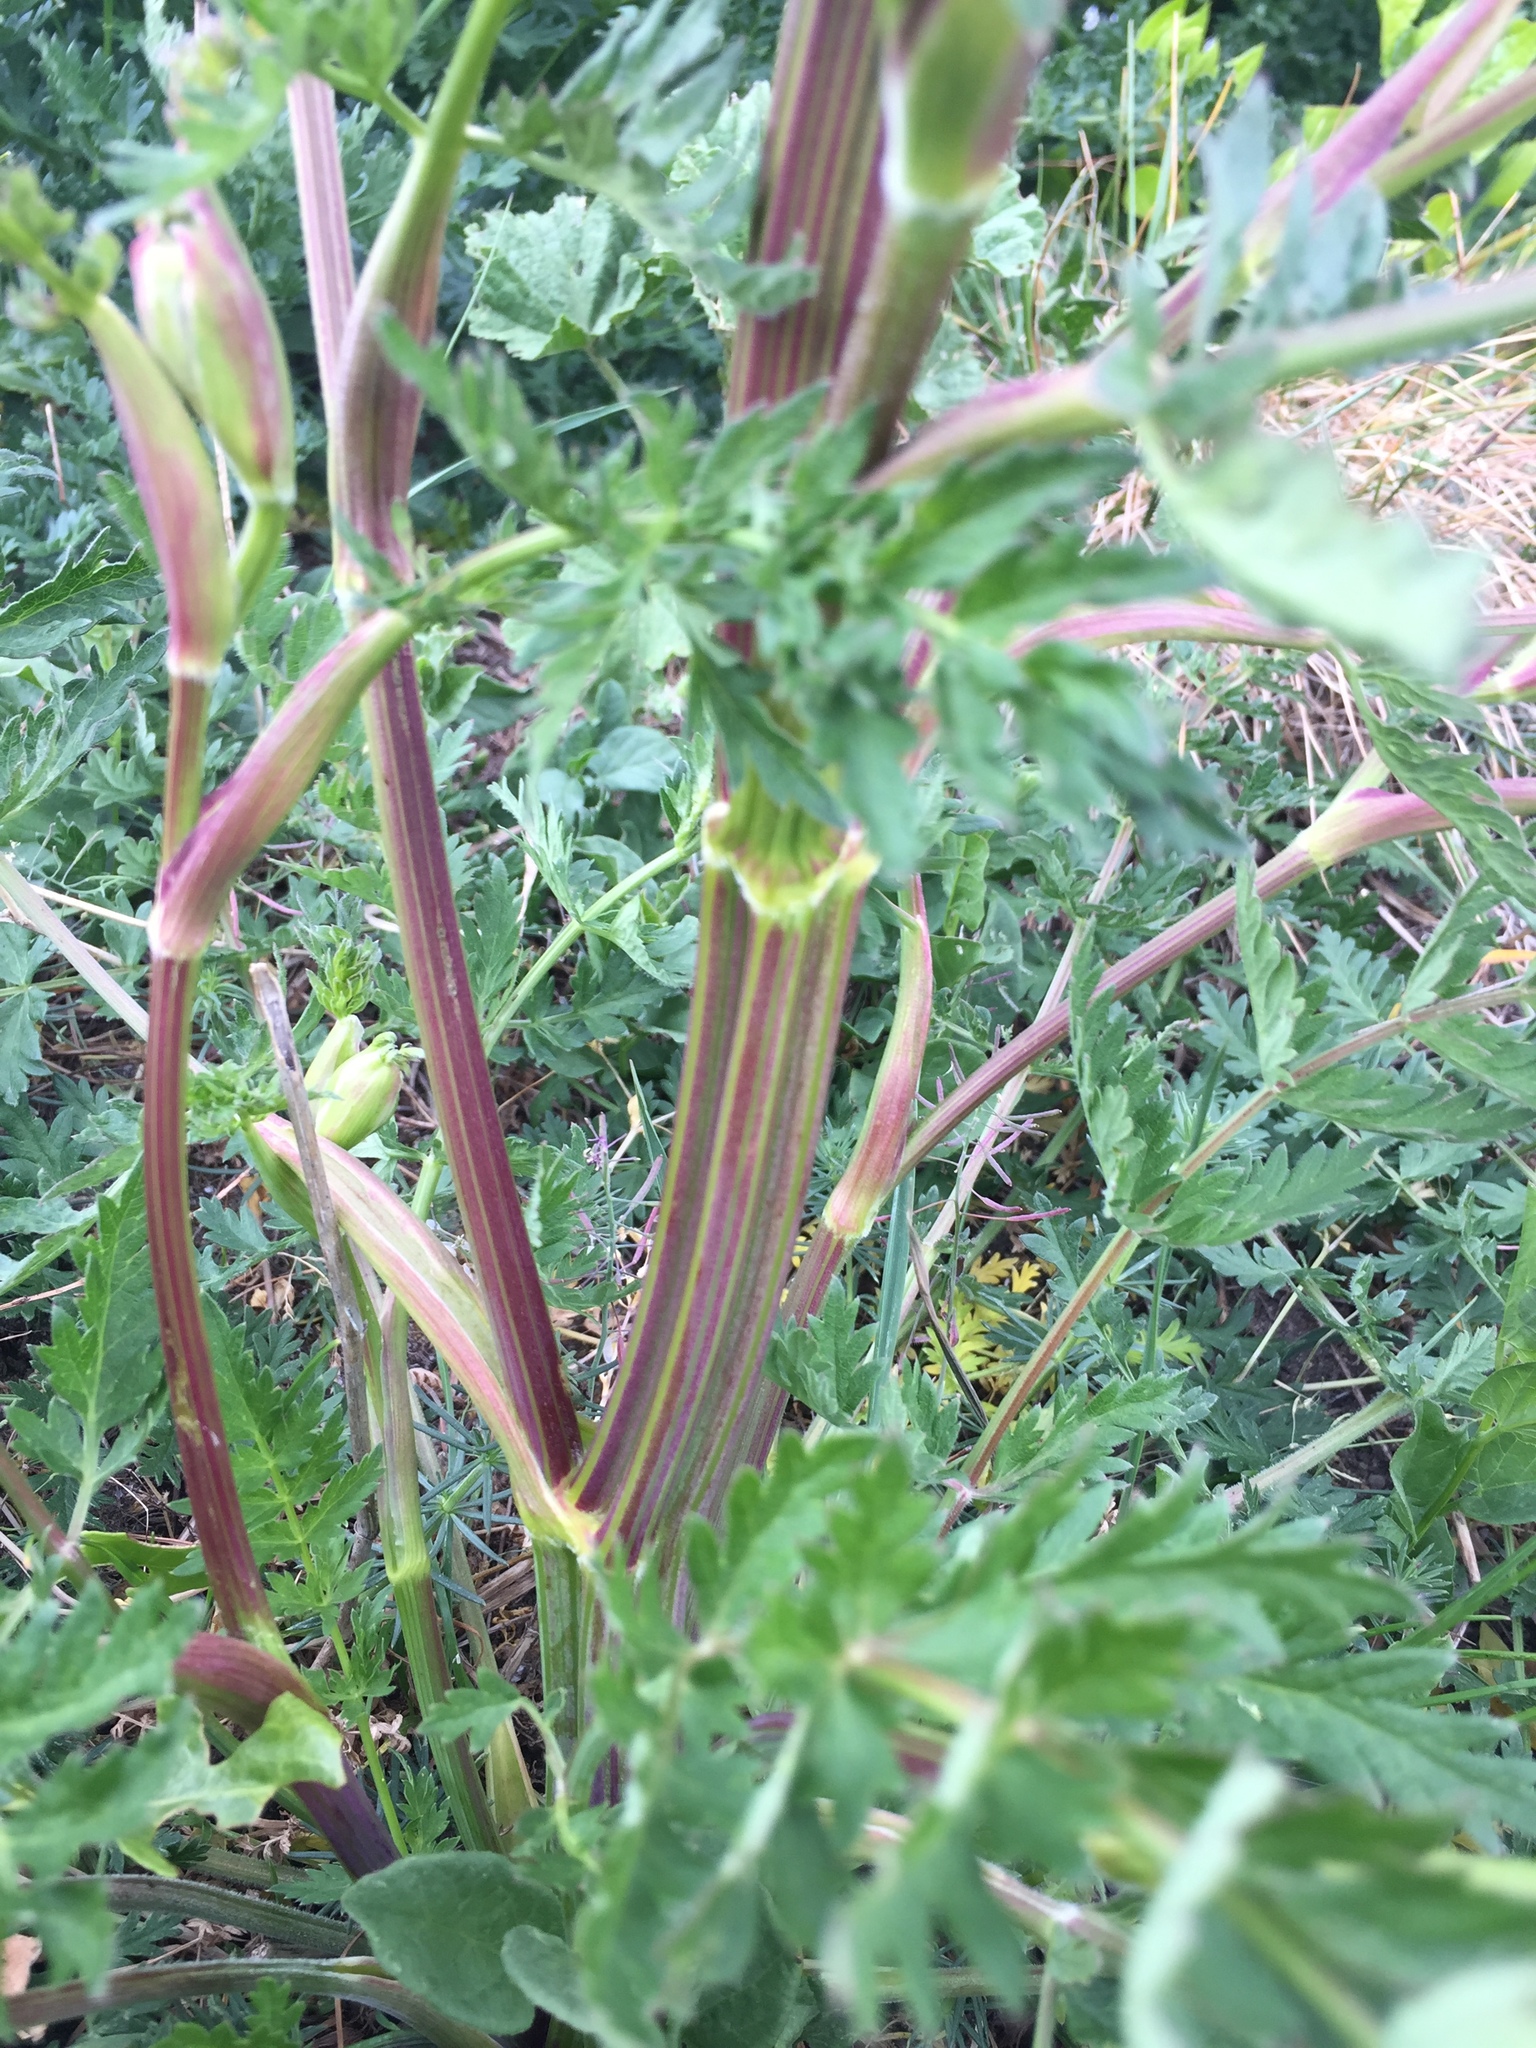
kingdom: Plantae
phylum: Tracheophyta
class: Magnoliopsida
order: Apiales
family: Apiaceae
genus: Seseli
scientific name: Seseli libanotis
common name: Mooncarrot
